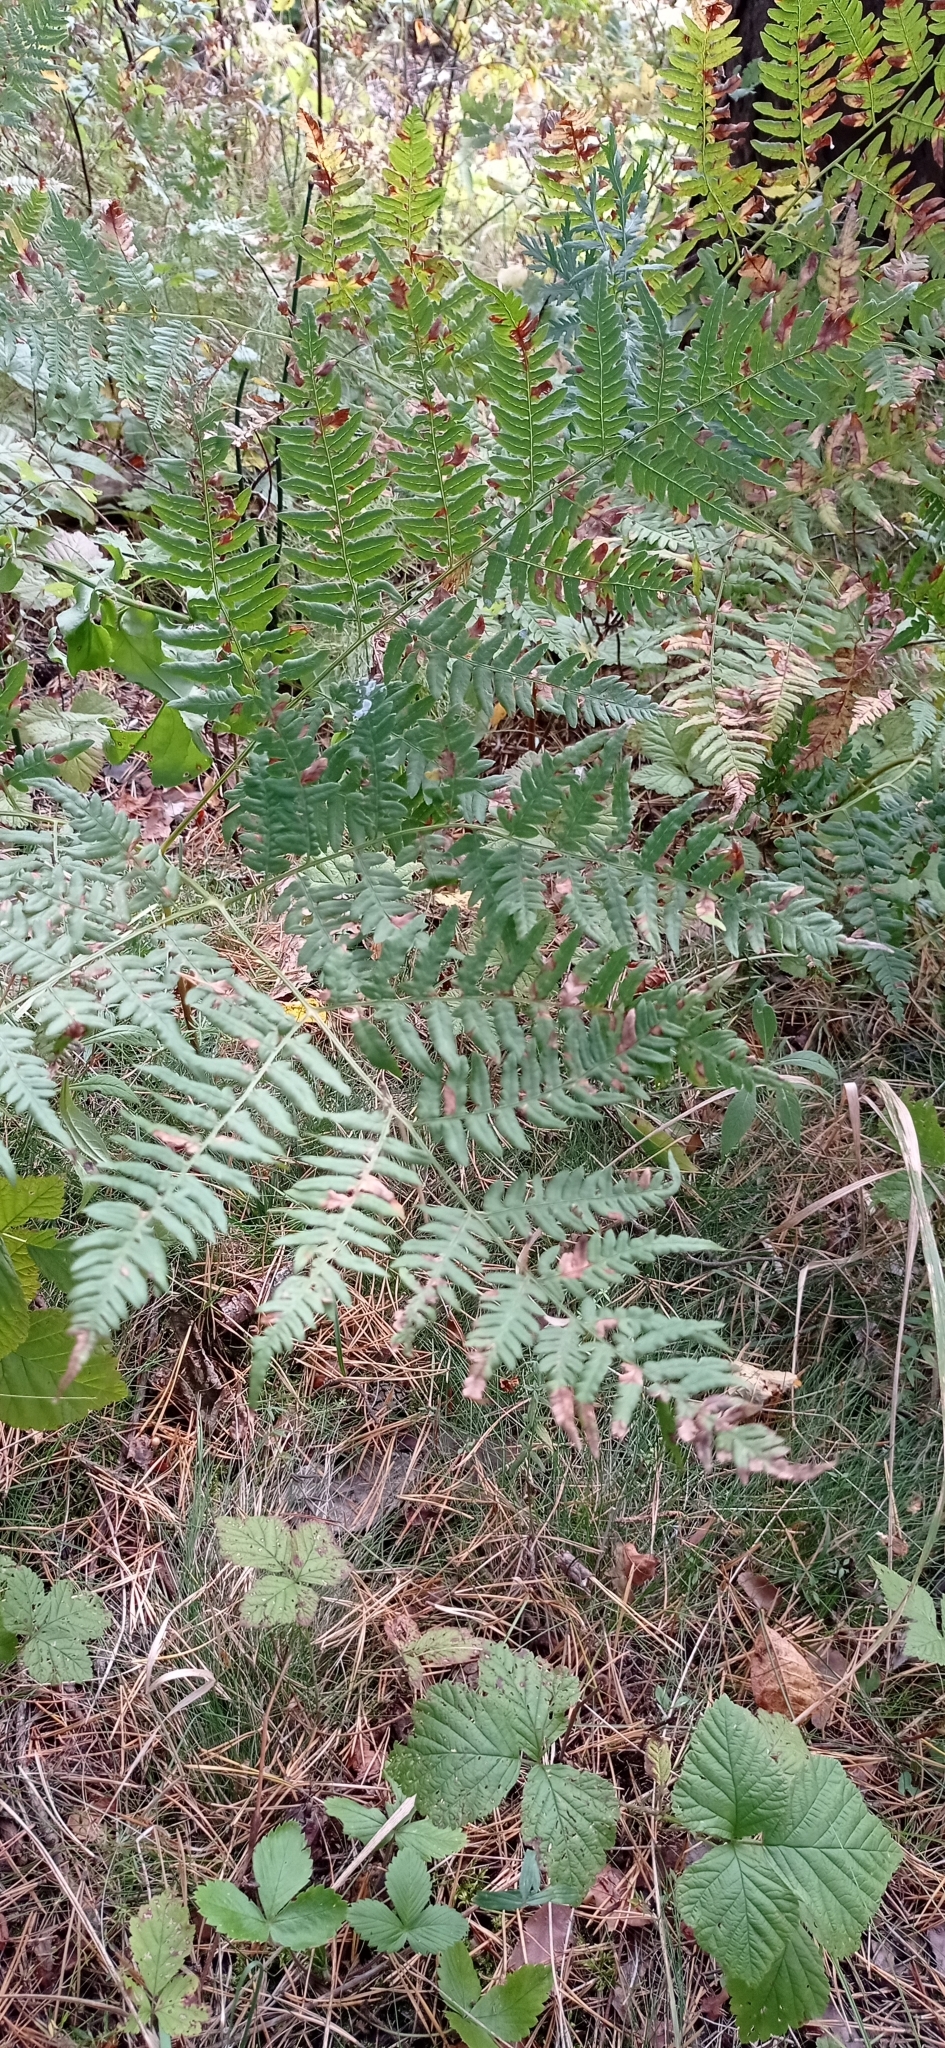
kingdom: Plantae
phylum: Tracheophyta
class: Polypodiopsida
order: Polypodiales
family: Dennstaedtiaceae
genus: Pteridium
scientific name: Pteridium aquilinum
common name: Bracken
